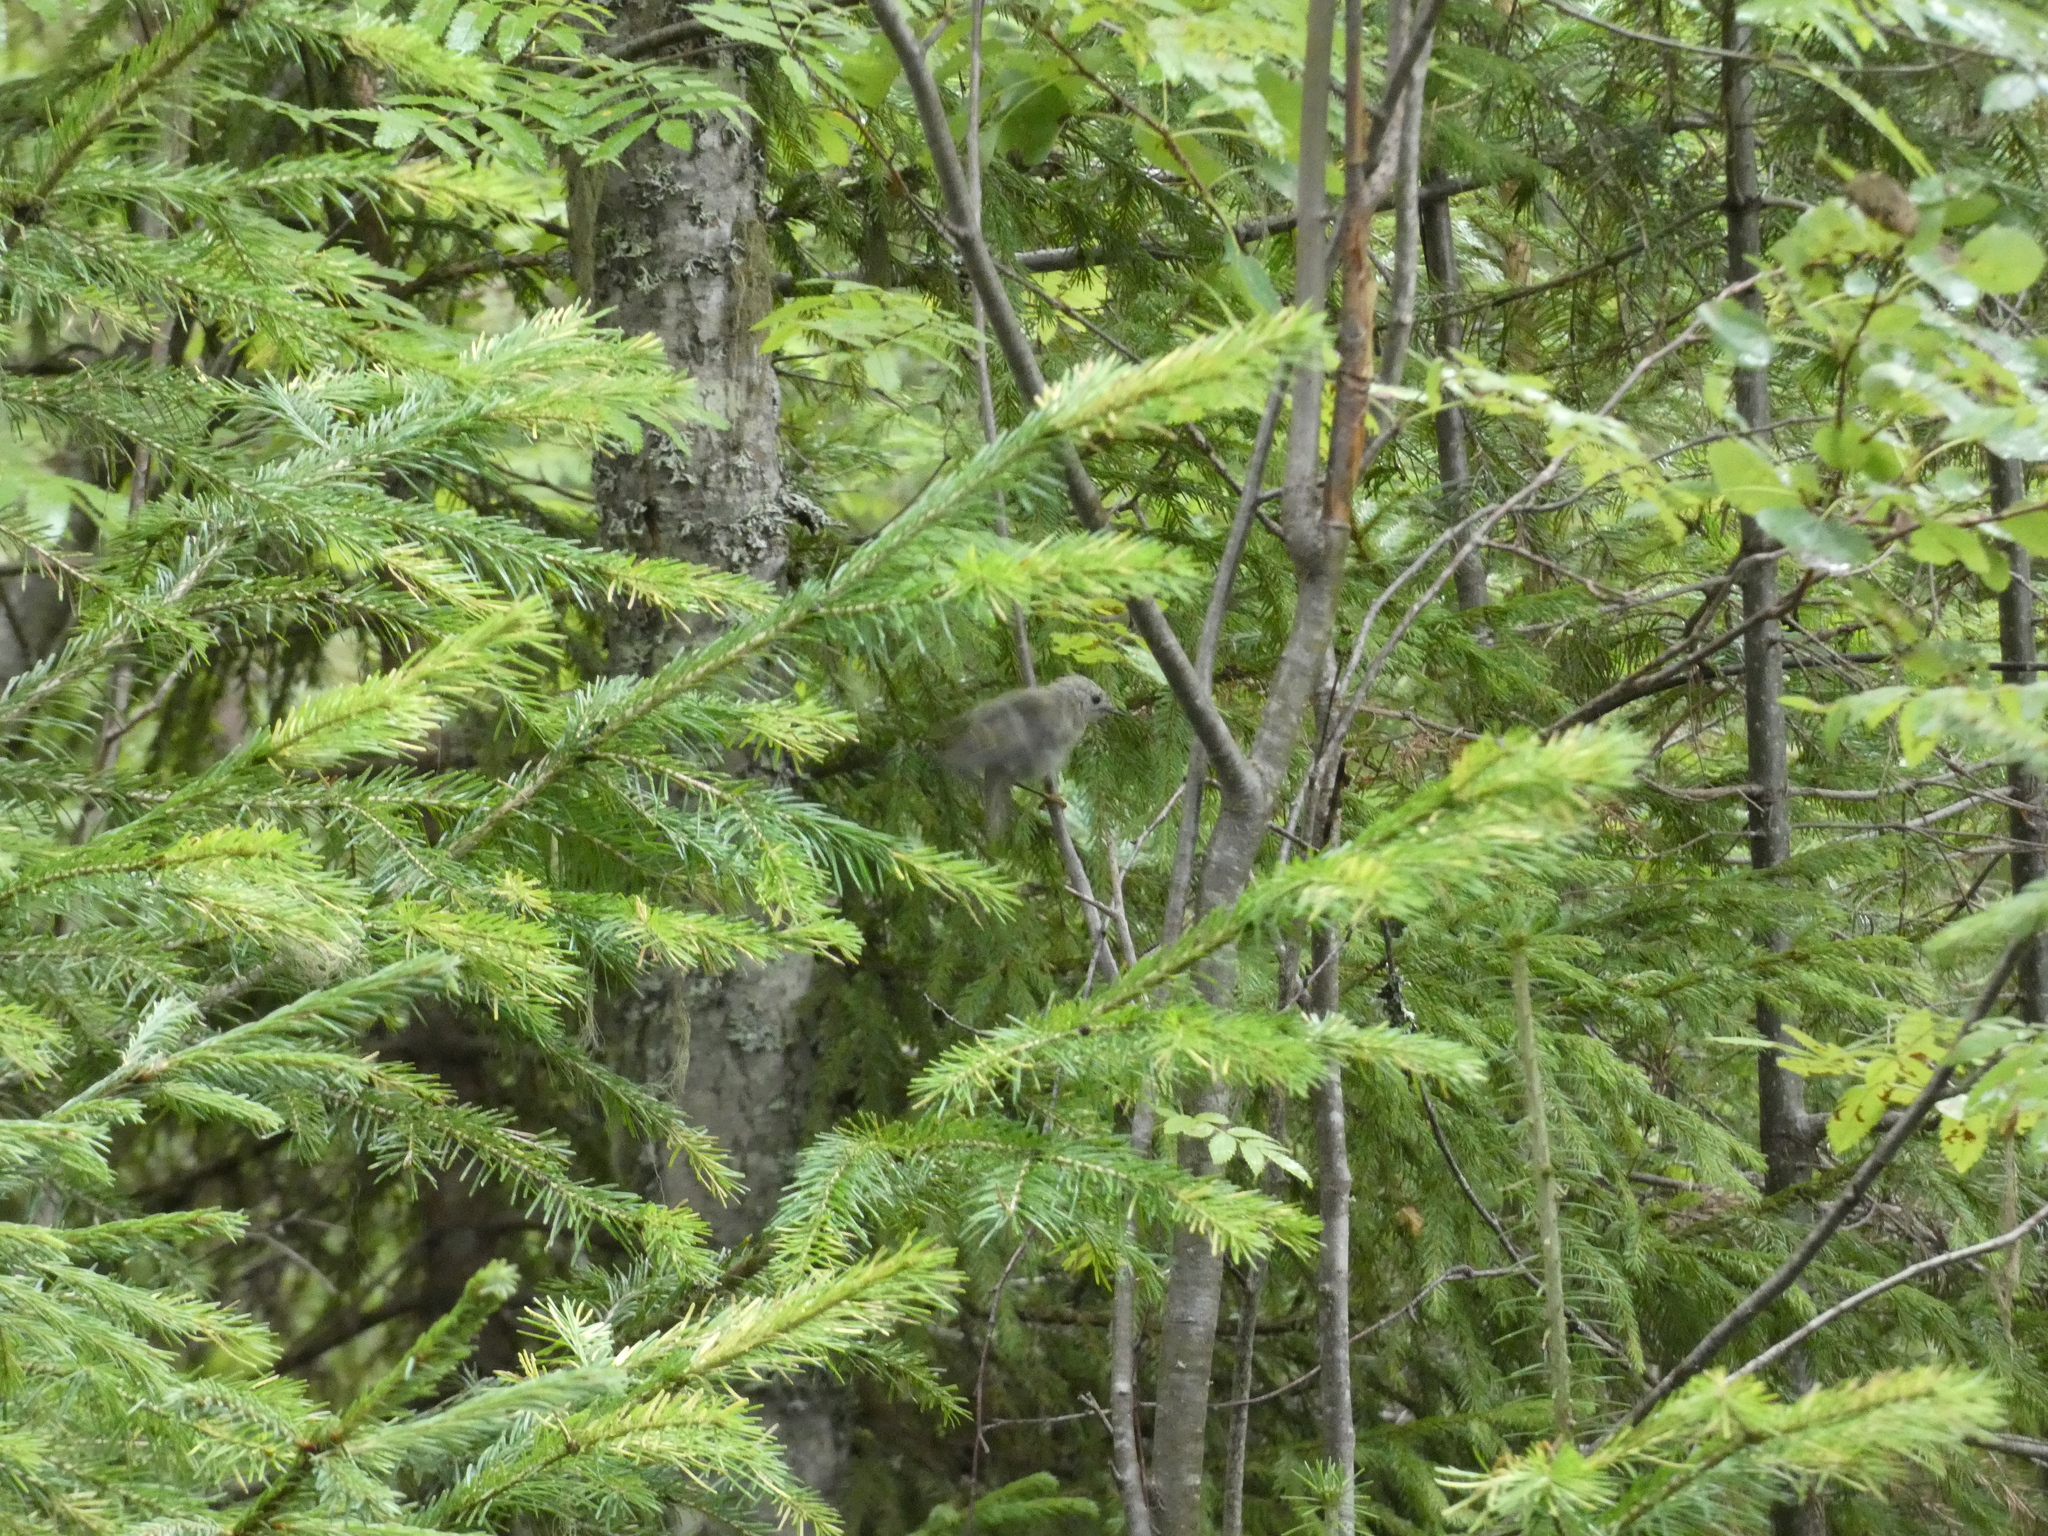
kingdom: Animalia
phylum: Chordata
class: Aves
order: Passeriformes
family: Regulidae
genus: Regulus
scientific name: Regulus regulus
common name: Goldcrest
